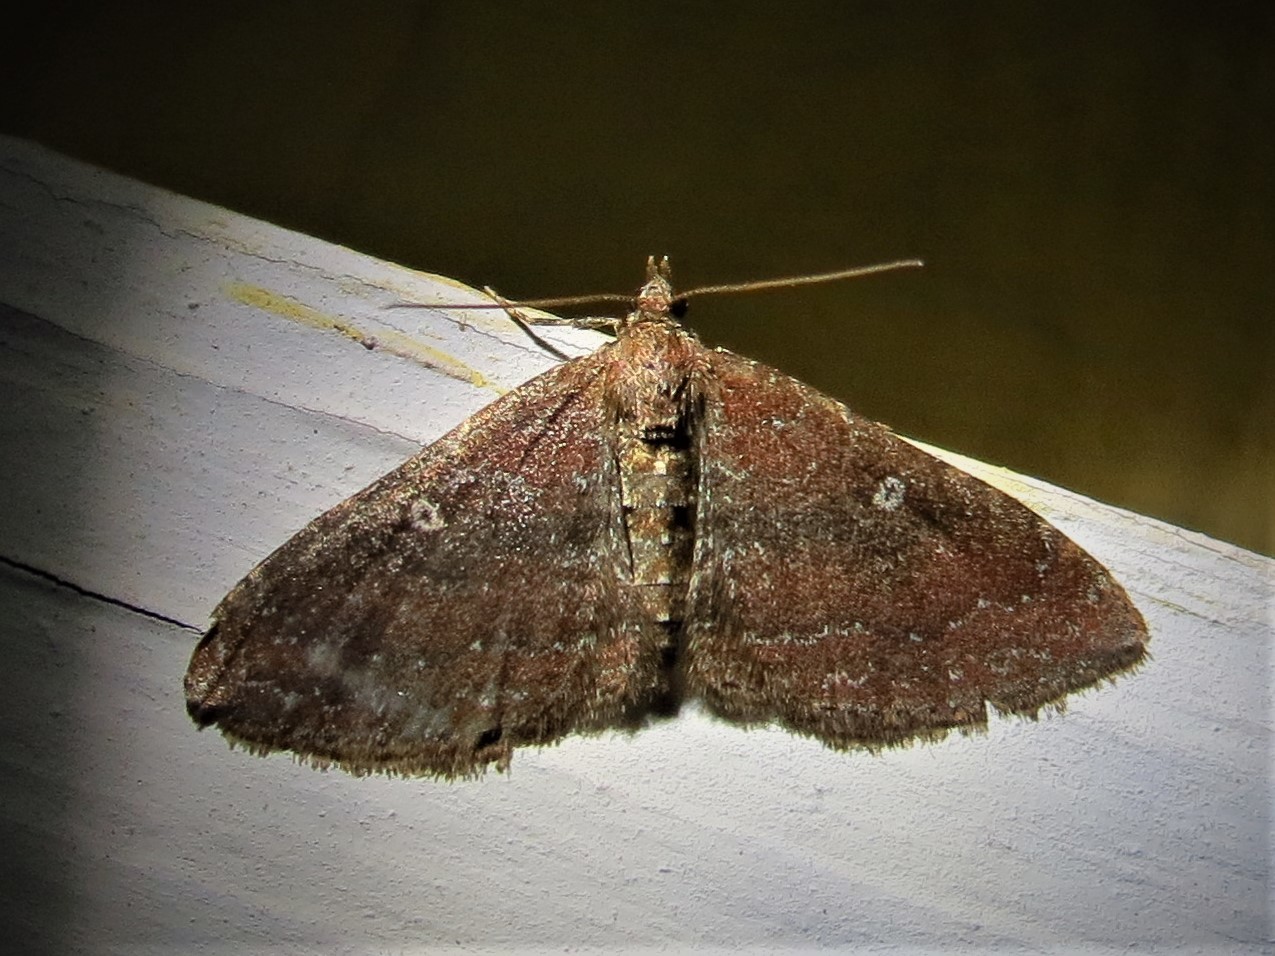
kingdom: Animalia
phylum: Arthropoda
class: Insecta
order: Lepidoptera
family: Geometridae
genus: Orthonama
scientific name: Orthonama obstipata
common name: The gem
